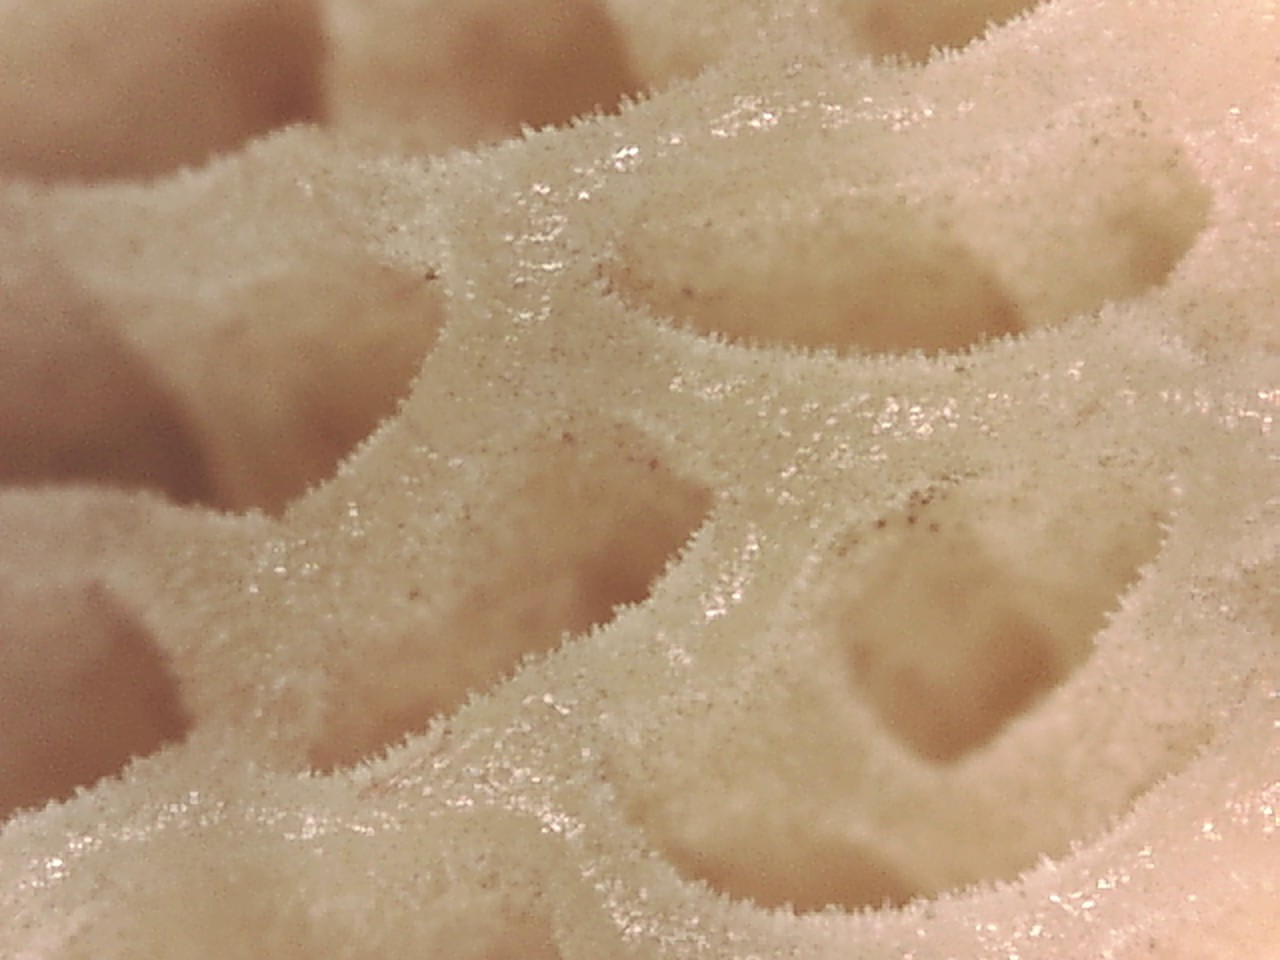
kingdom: Fungi
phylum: Basidiomycota
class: Agaricomycetes
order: Boletales
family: Boletaceae
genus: Boletus
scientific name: Boletus paluster
